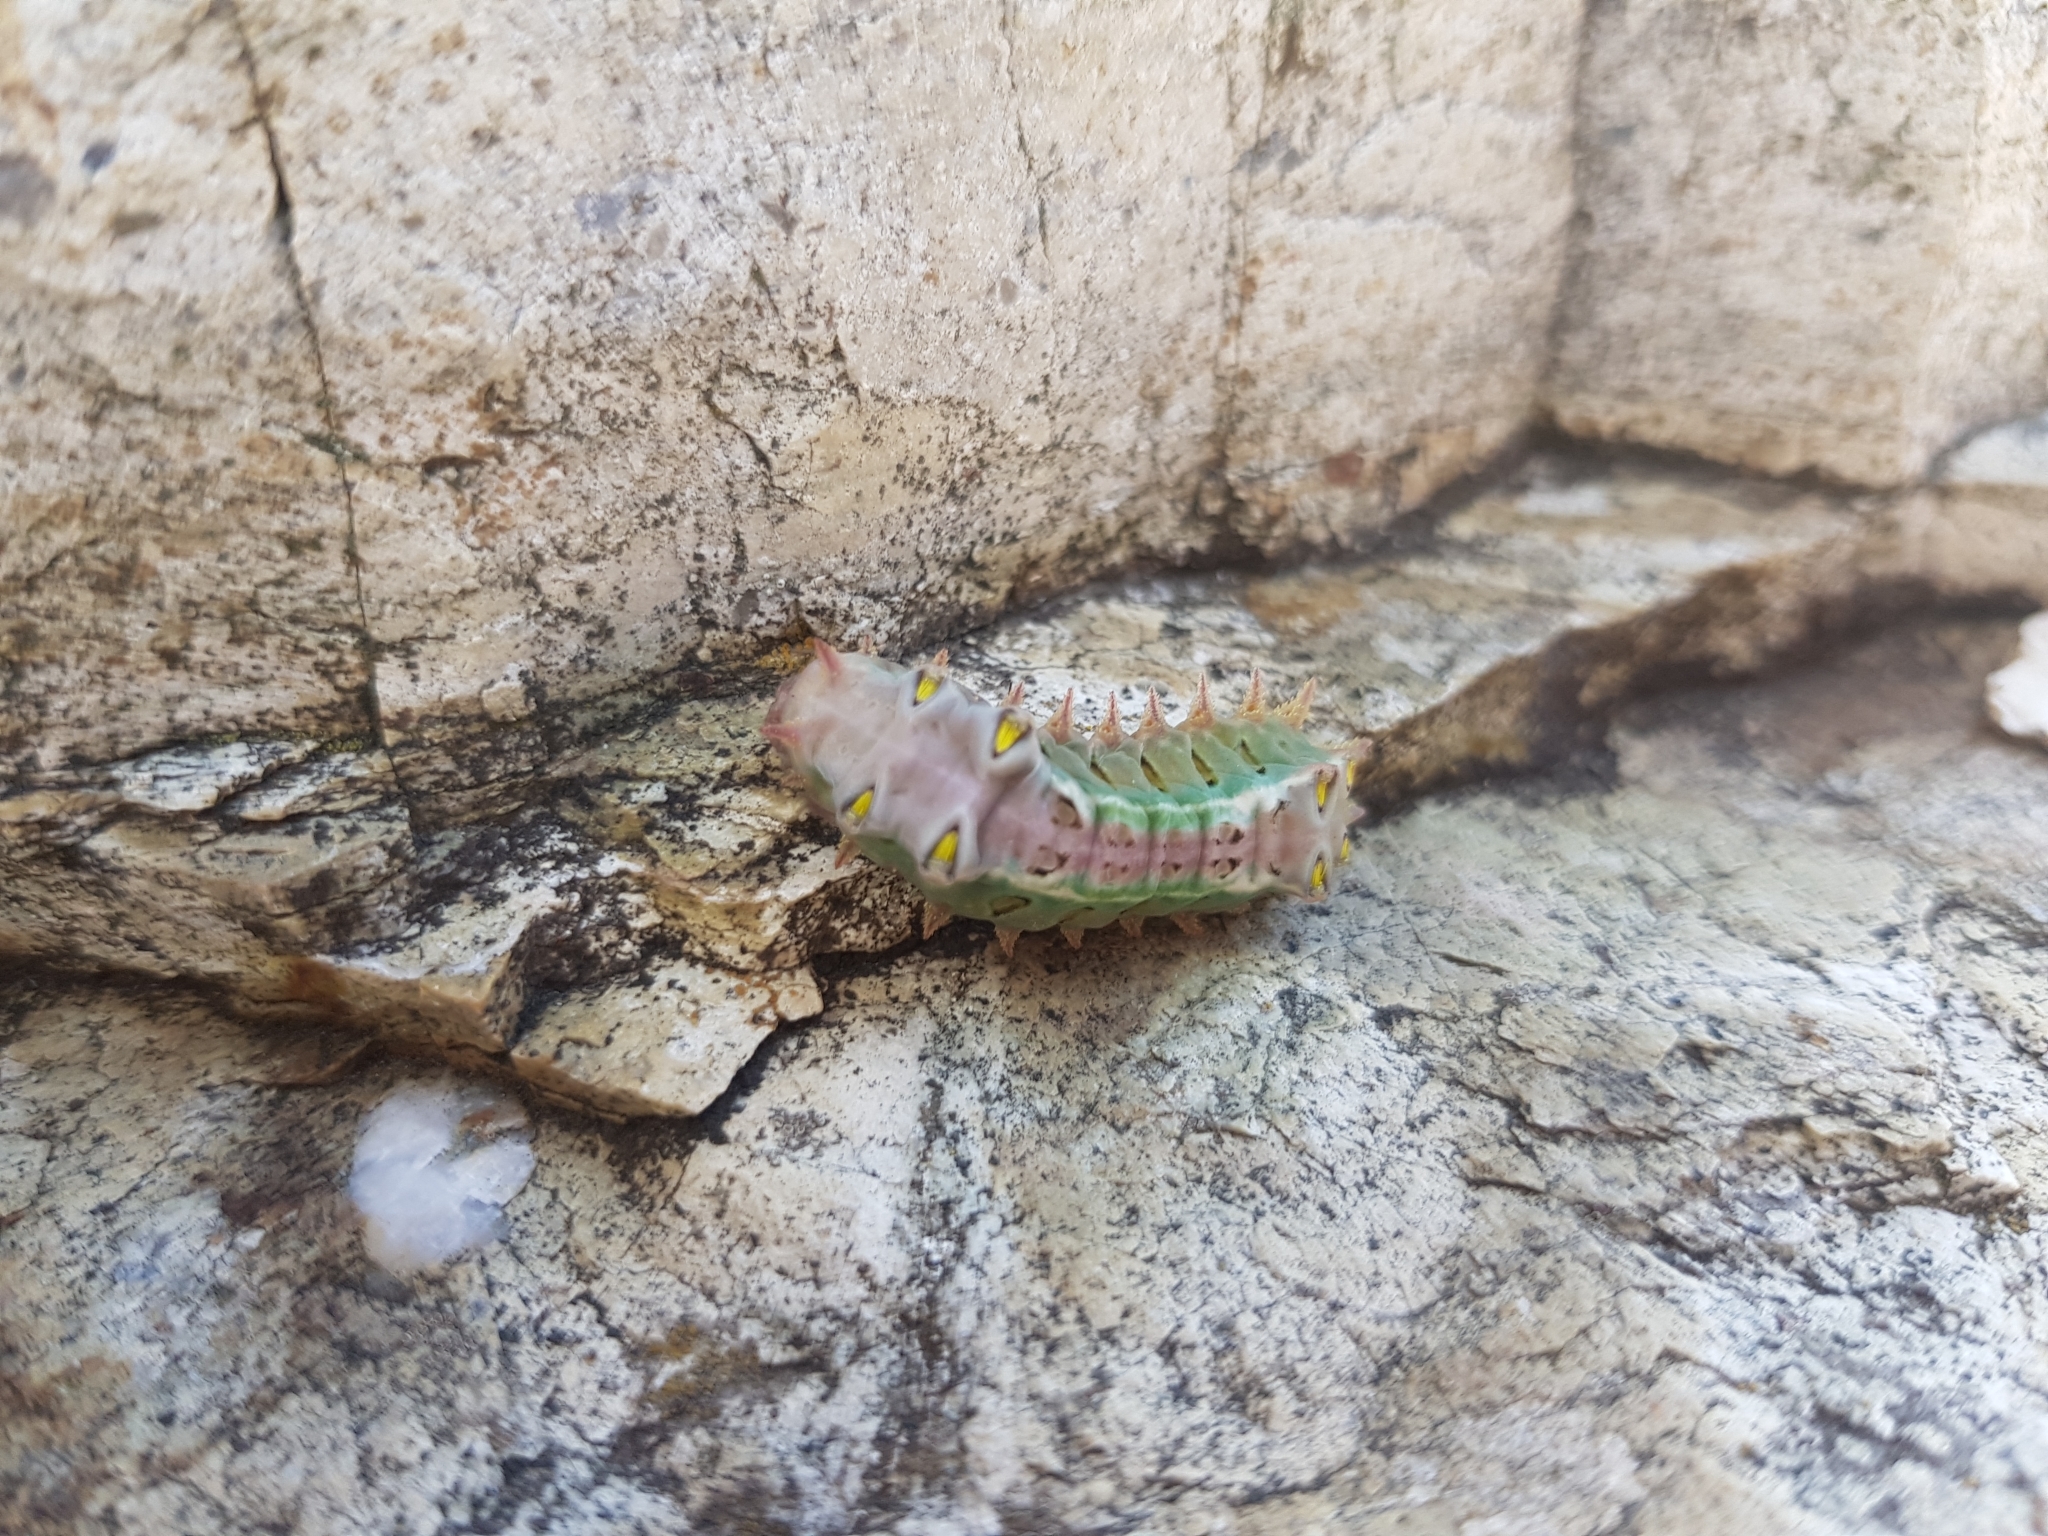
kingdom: Animalia
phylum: Arthropoda
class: Insecta
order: Lepidoptera
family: Limacodidae
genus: Doratifera
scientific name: Doratifera oxleyi
